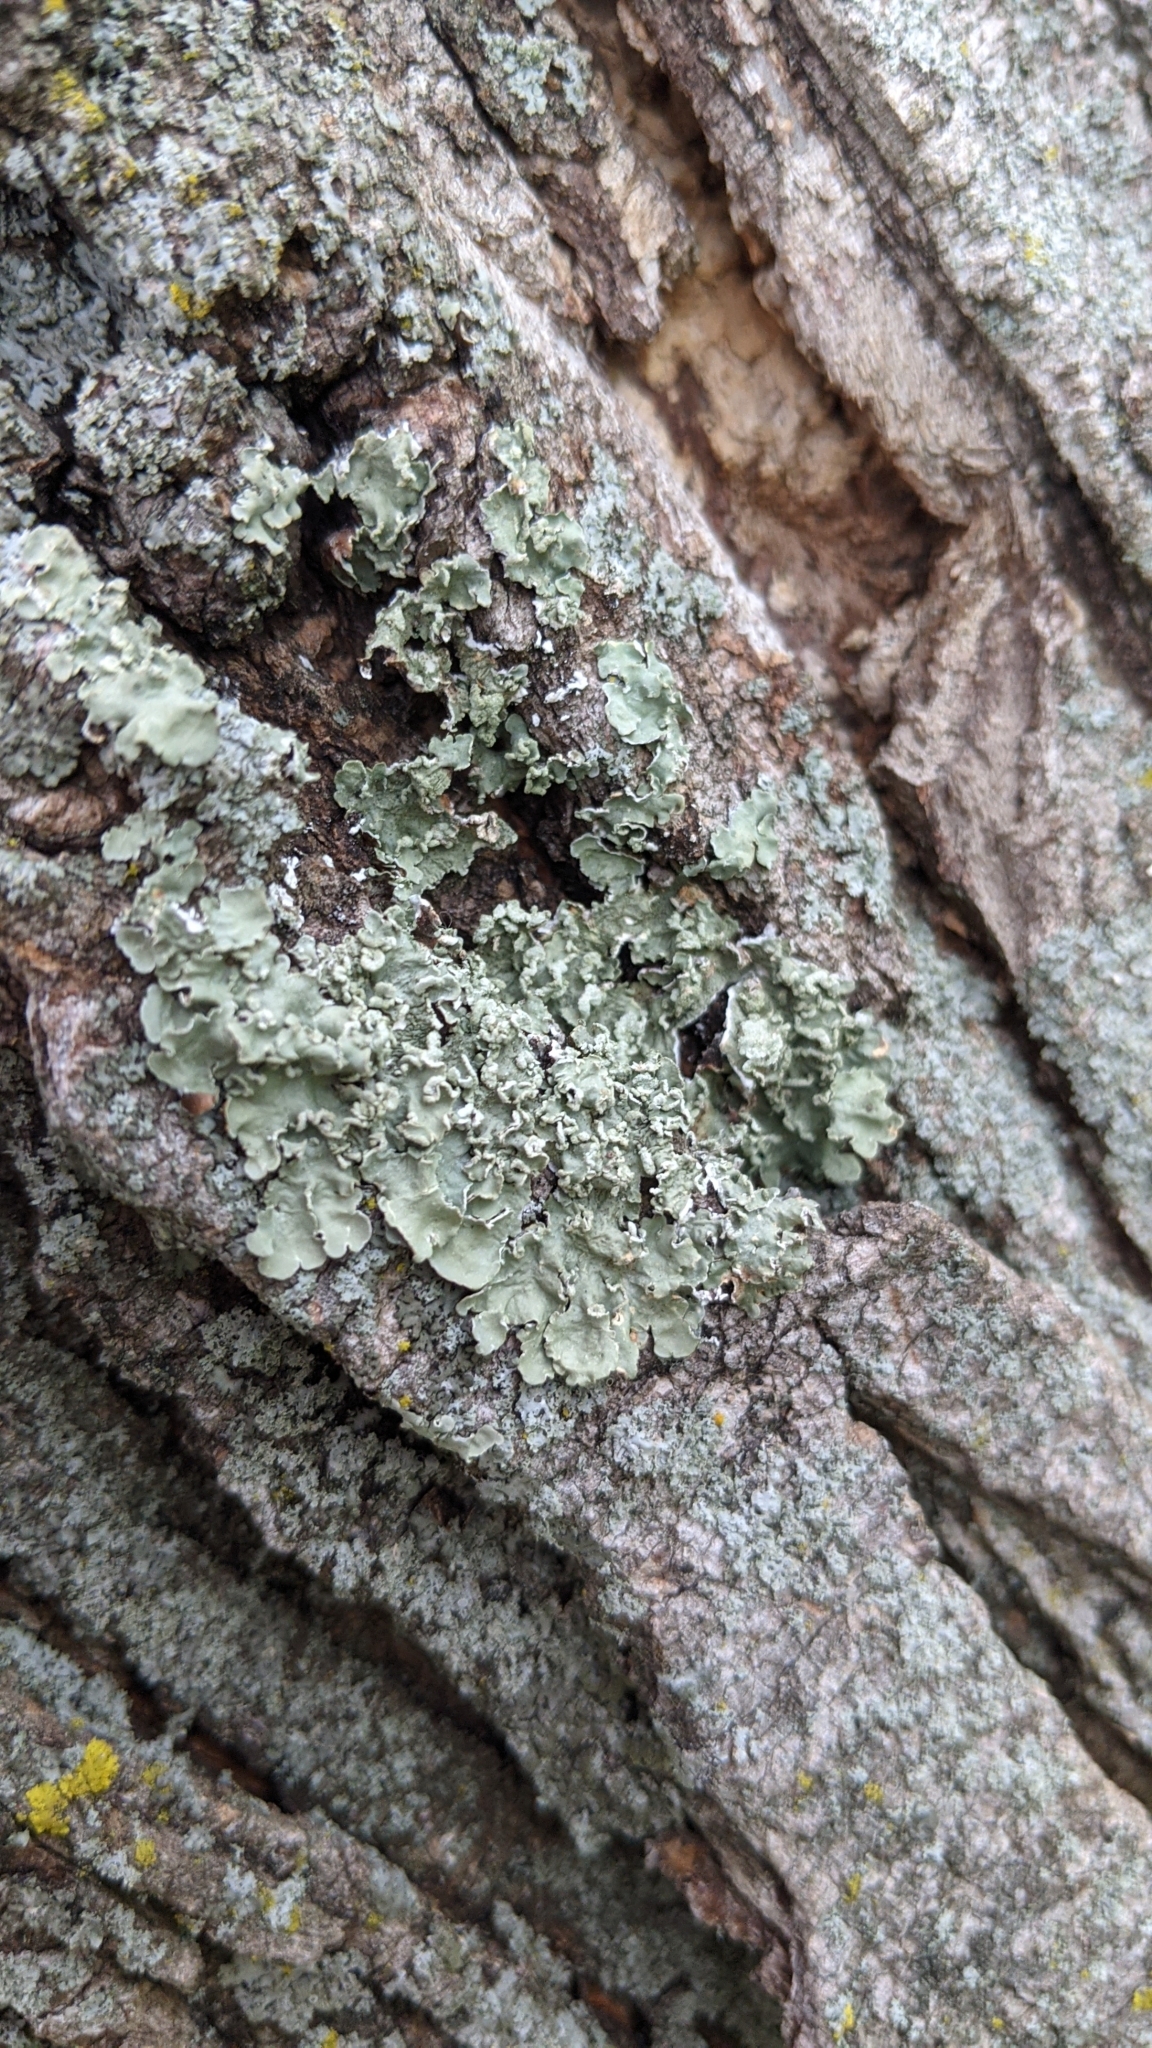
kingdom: Fungi
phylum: Ascomycota
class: Lecanoromycetes
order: Lecanorales
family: Parmeliaceae
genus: Flavopunctelia
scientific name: Flavopunctelia soredica
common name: Powder-edged speckled greenshield
